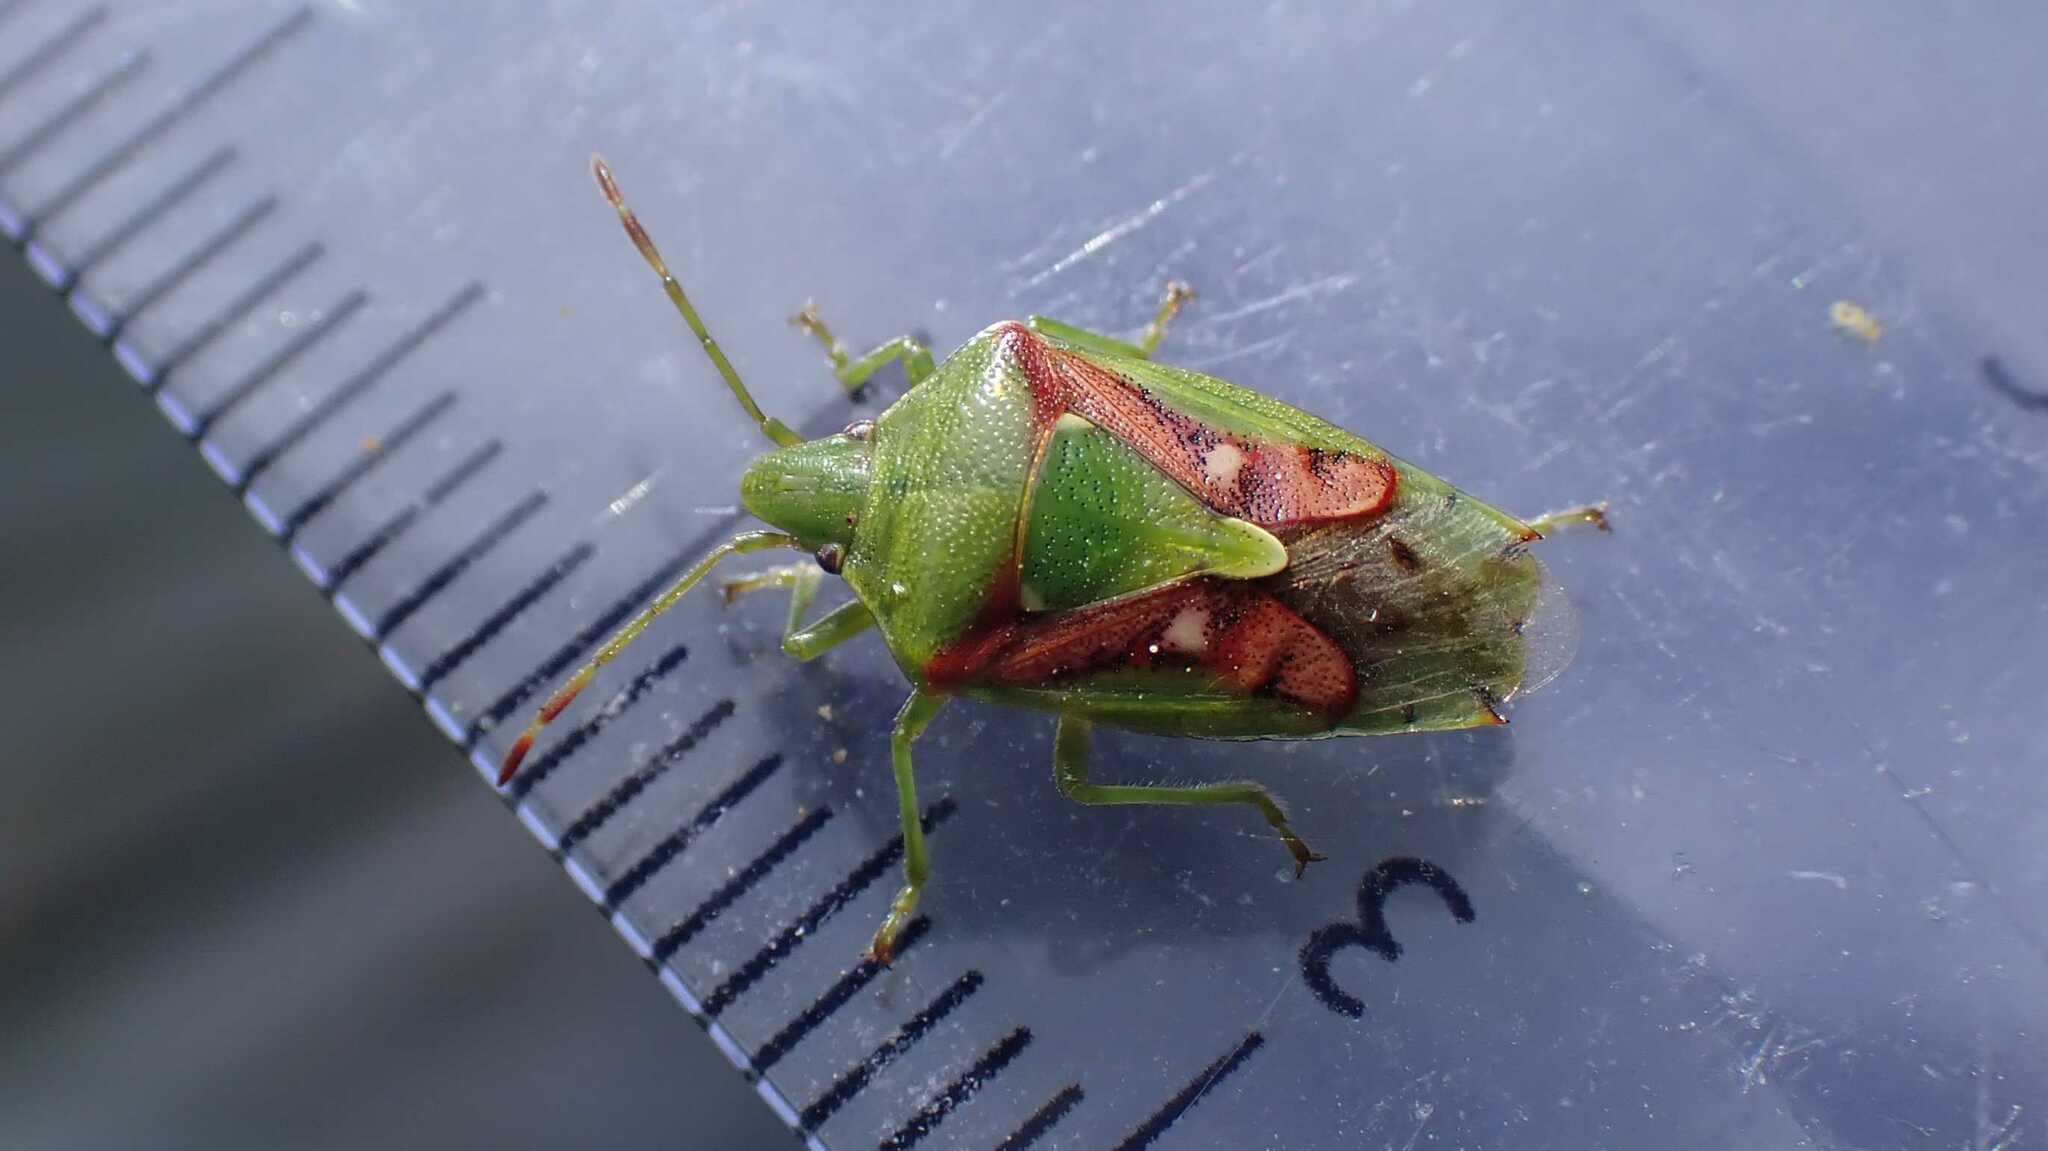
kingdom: Animalia
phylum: Arthropoda
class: Insecta
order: Hemiptera
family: Acanthosomatidae
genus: Cyphostethus
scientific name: Cyphostethus tristriatus
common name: Juniper shieldbug
